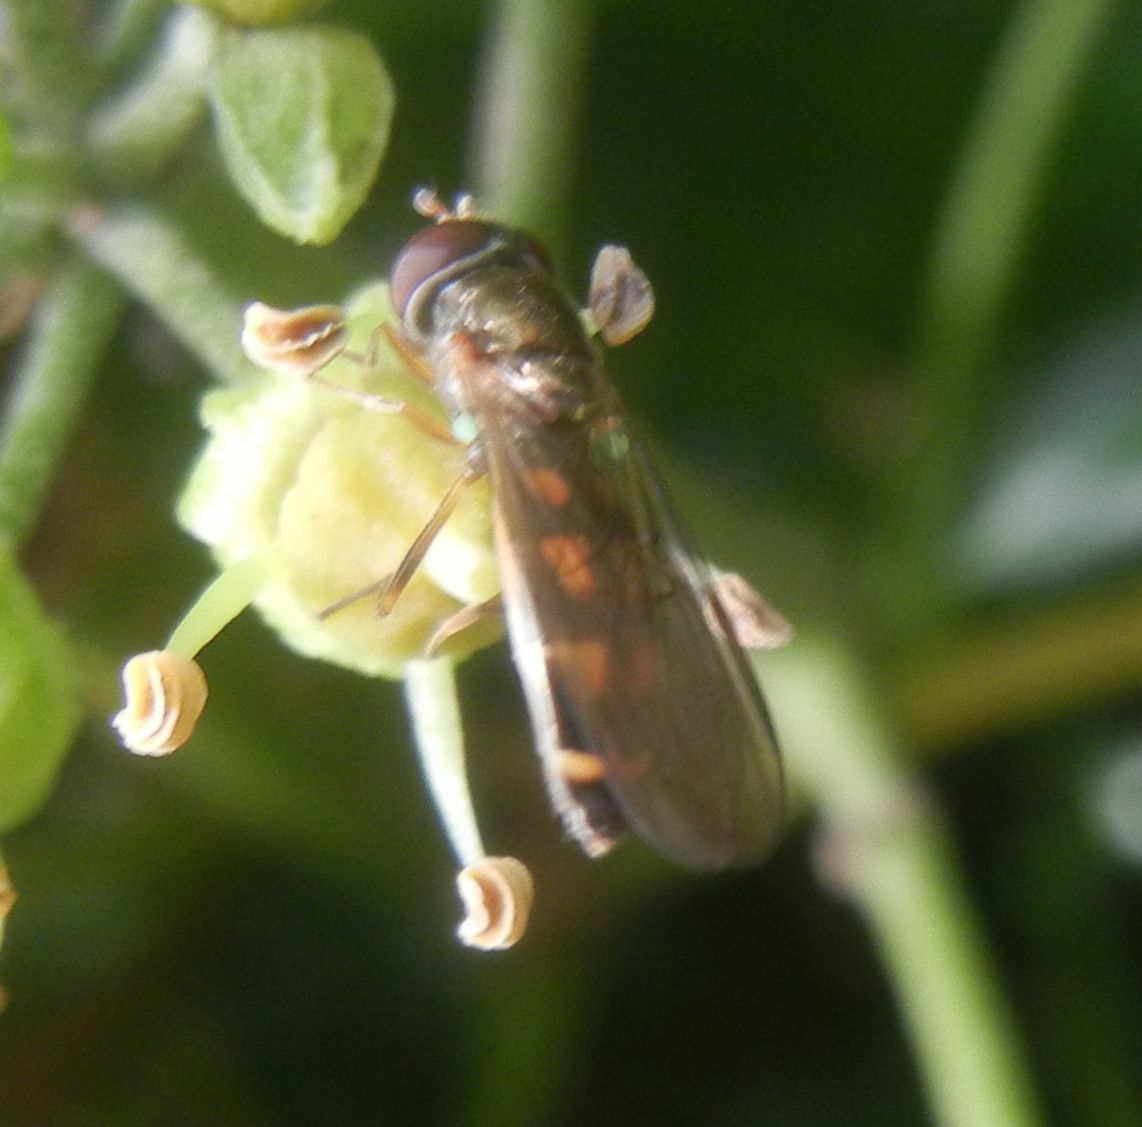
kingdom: Animalia
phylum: Arthropoda
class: Insecta
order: Diptera
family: Syrphidae
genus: Melanostoma
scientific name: Melanostoma
